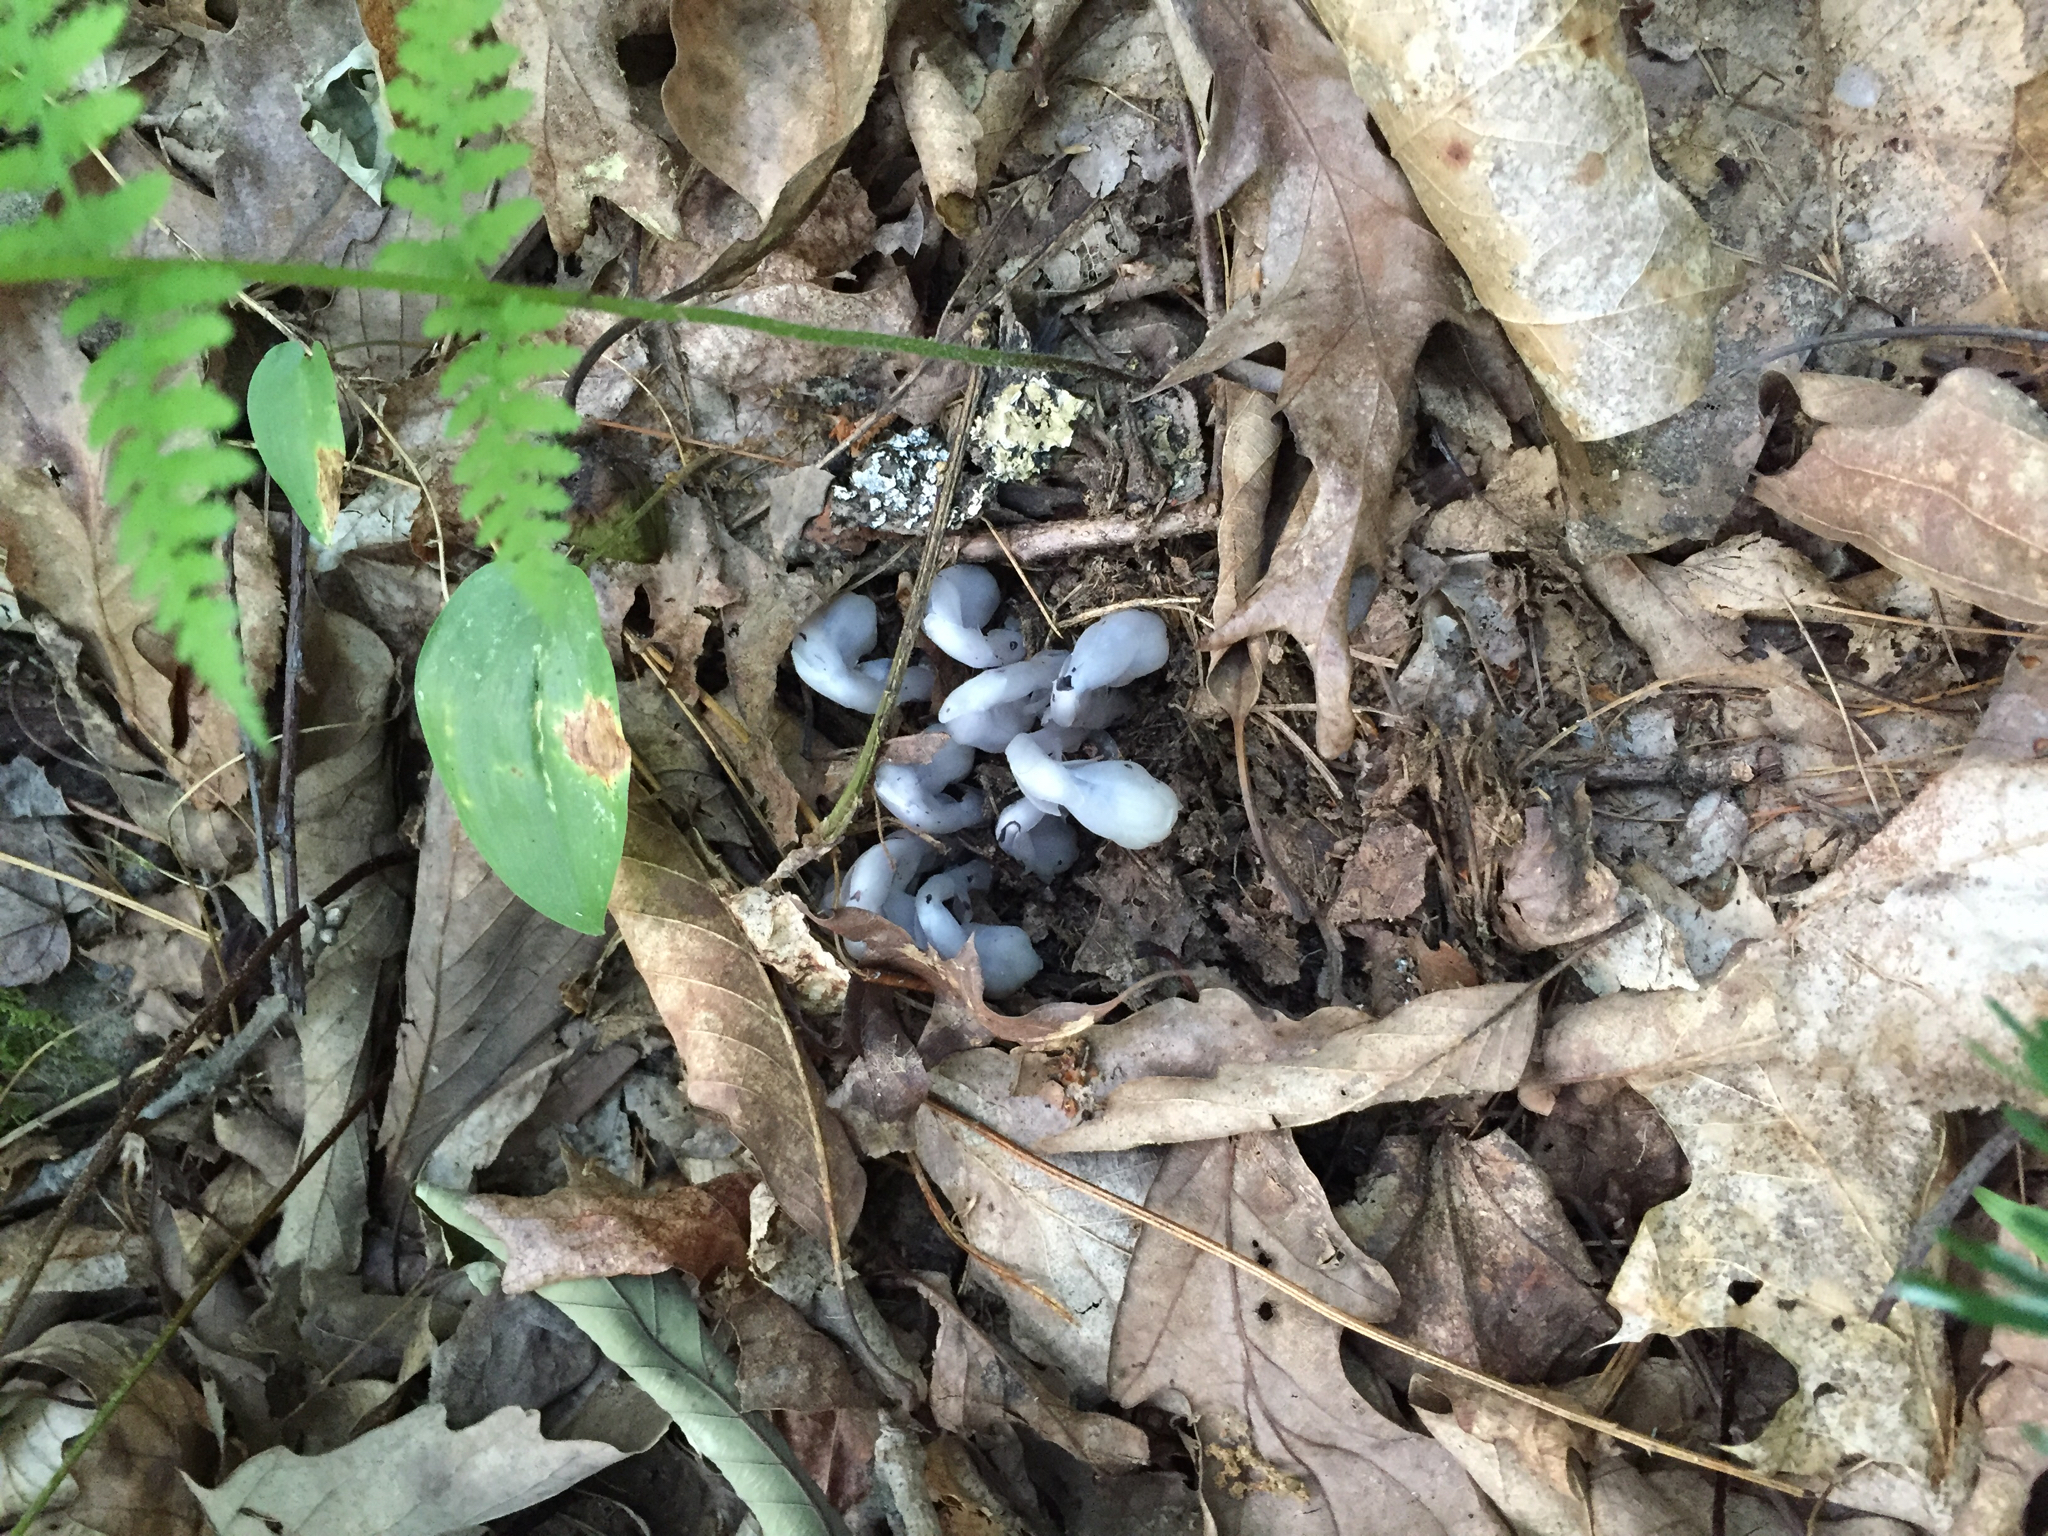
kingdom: Plantae
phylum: Tracheophyta
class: Magnoliopsida
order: Ericales
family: Ericaceae
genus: Monotropa
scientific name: Monotropa uniflora
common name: Convulsion root
